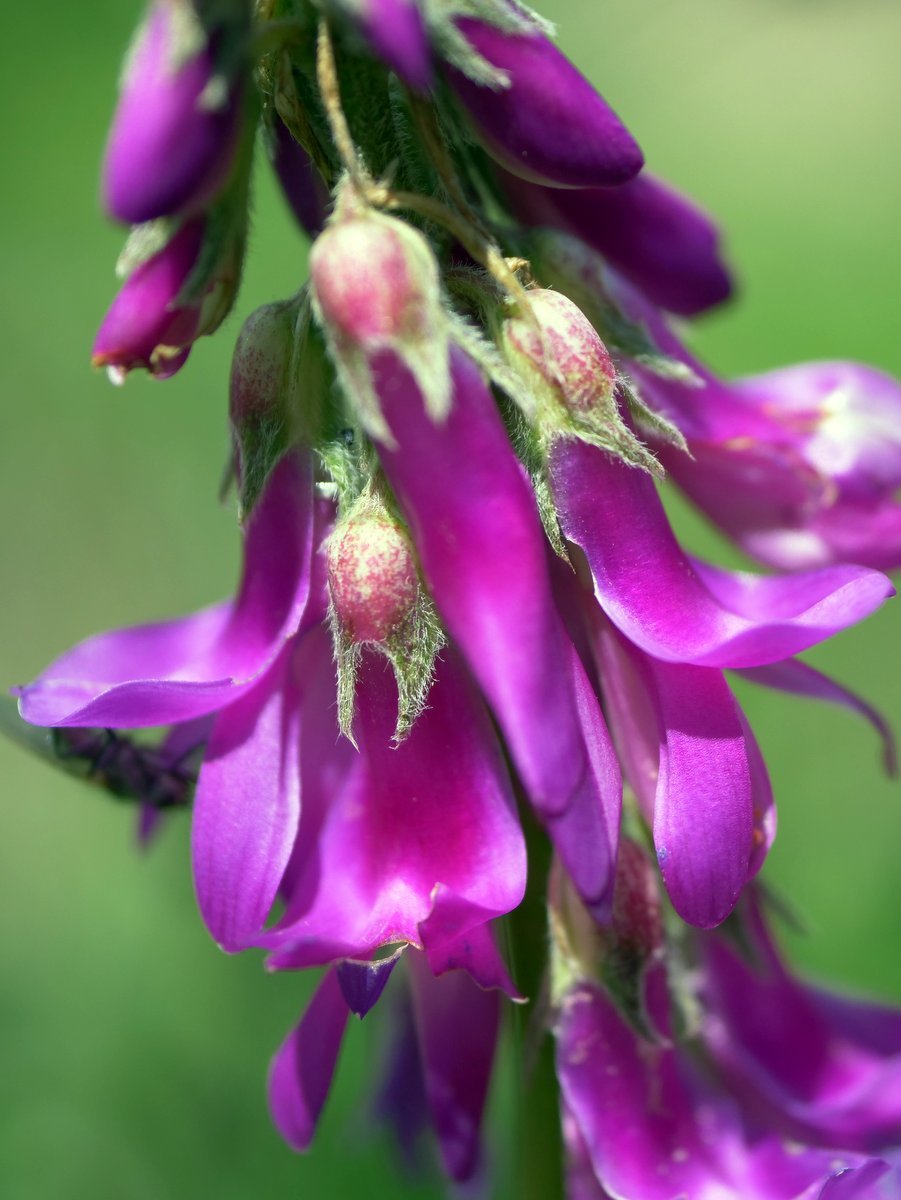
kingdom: Plantae
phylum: Tracheophyta
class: Magnoliopsida
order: Fabales
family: Fabaceae
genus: Hedysarum
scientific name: Hedysarum hedysaroides
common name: Alpine french-honeysuckle
